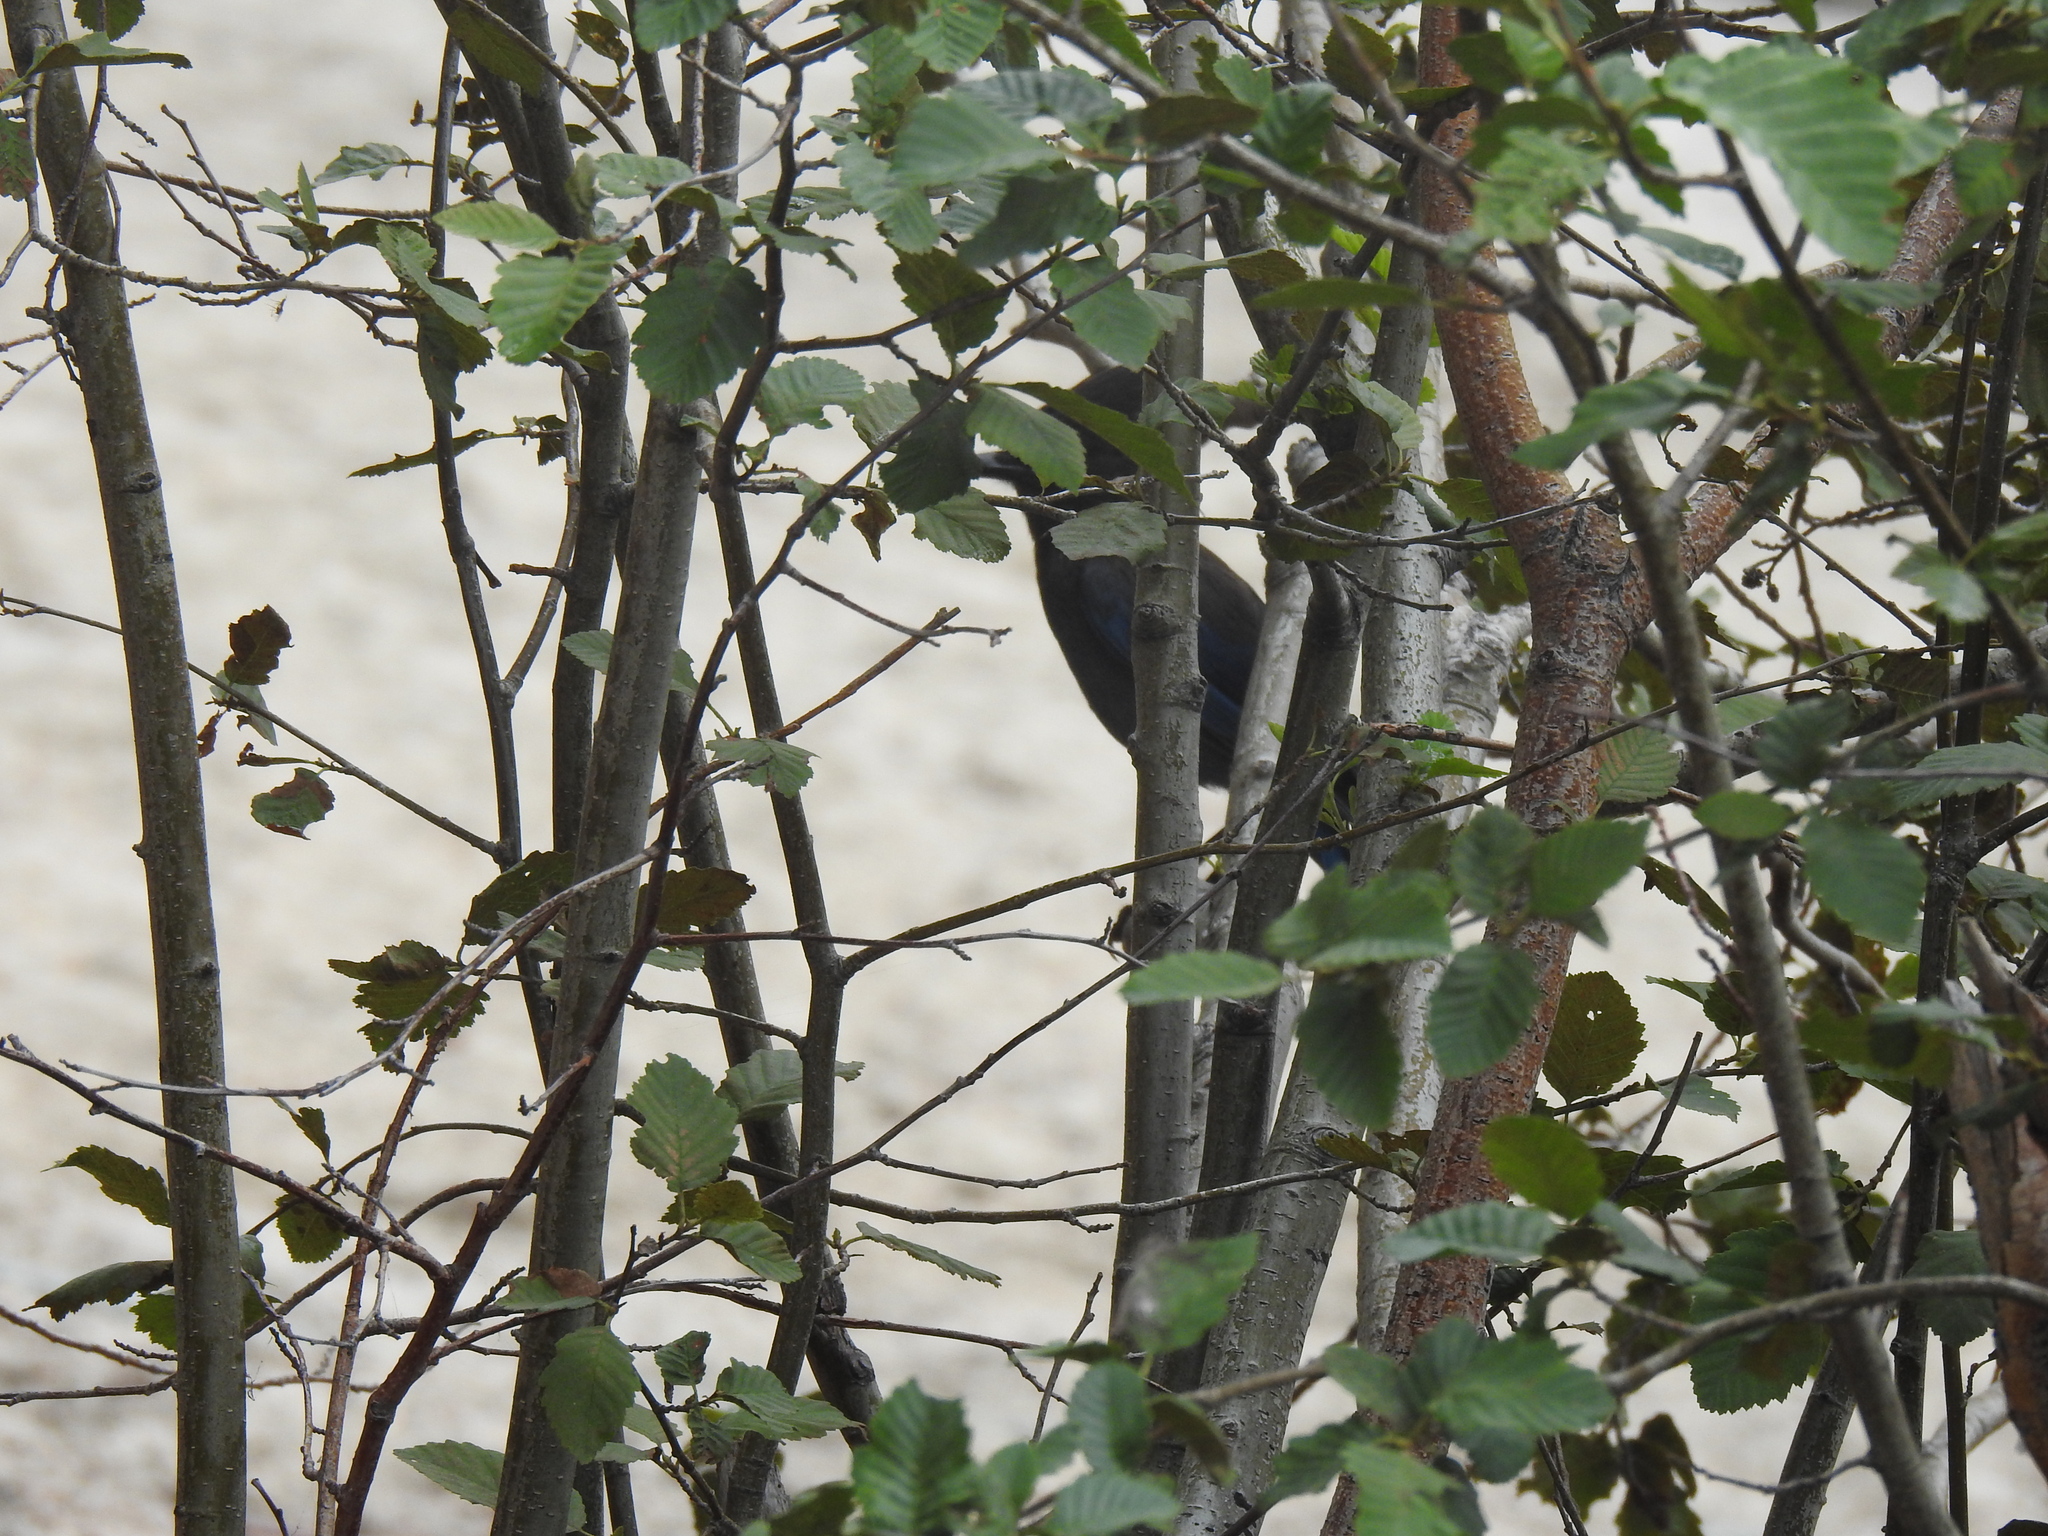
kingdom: Animalia
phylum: Chordata
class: Aves
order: Passeriformes
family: Corvidae
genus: Cyanocitta
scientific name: Cyanocitta stelleri
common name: Steller's jay
